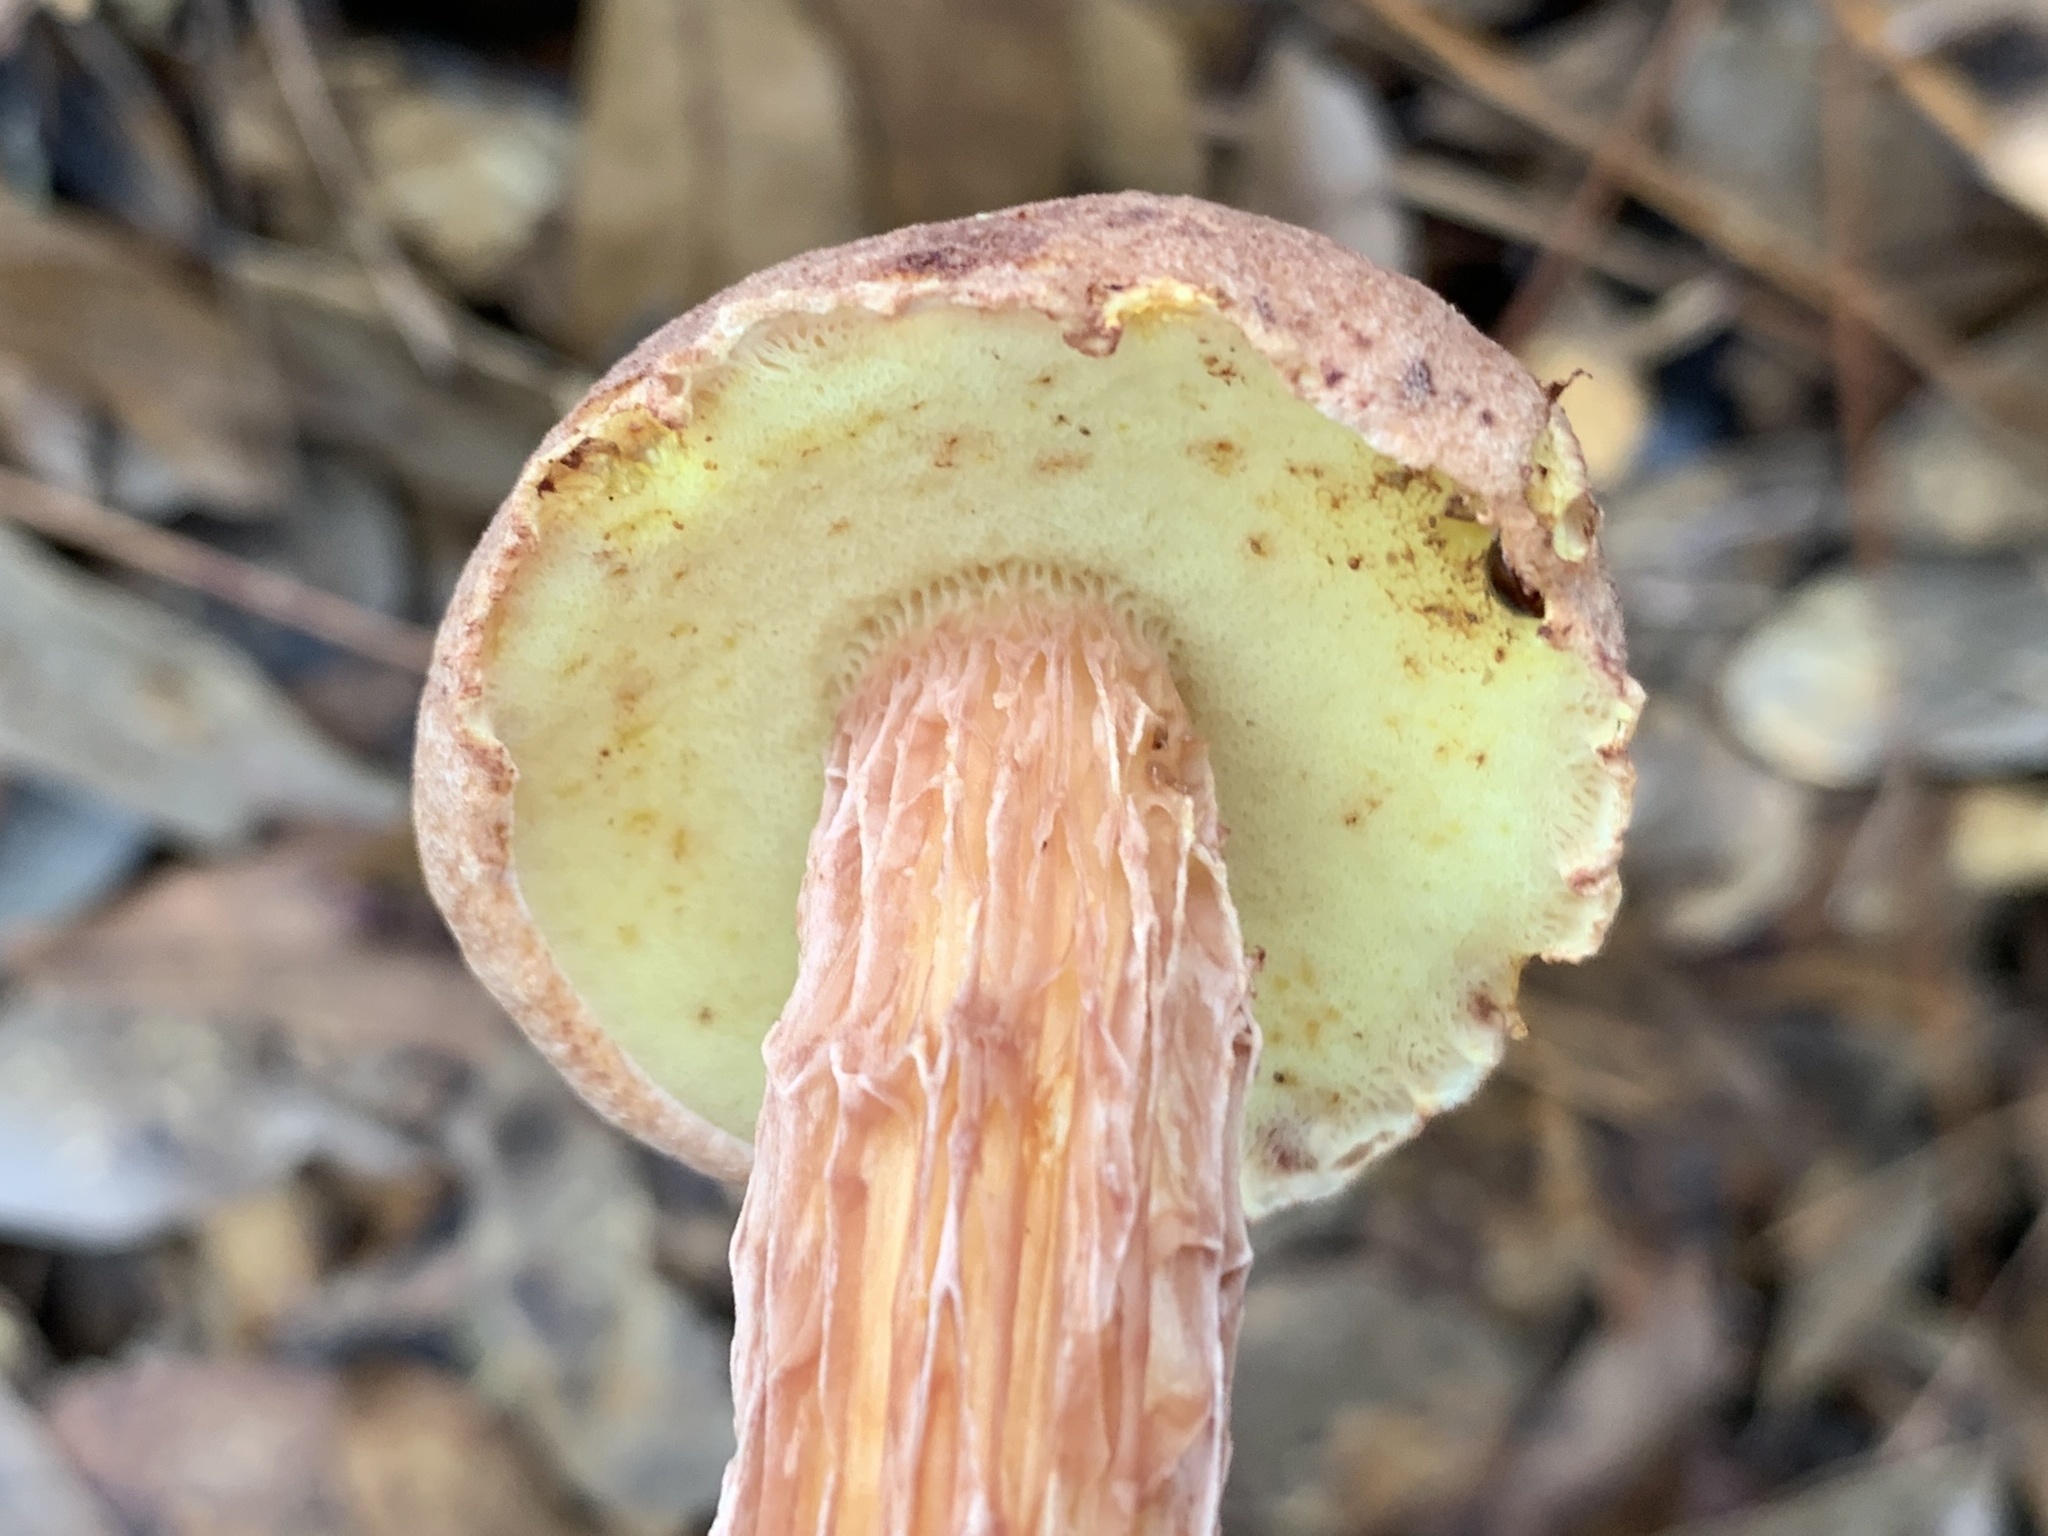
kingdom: Fungi
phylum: Basidiomycota
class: Agaricomycetes
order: Boletales
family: Boletaceae
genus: Aureoboletus
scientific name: Aureoboletus russellii
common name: Russell's bolete
